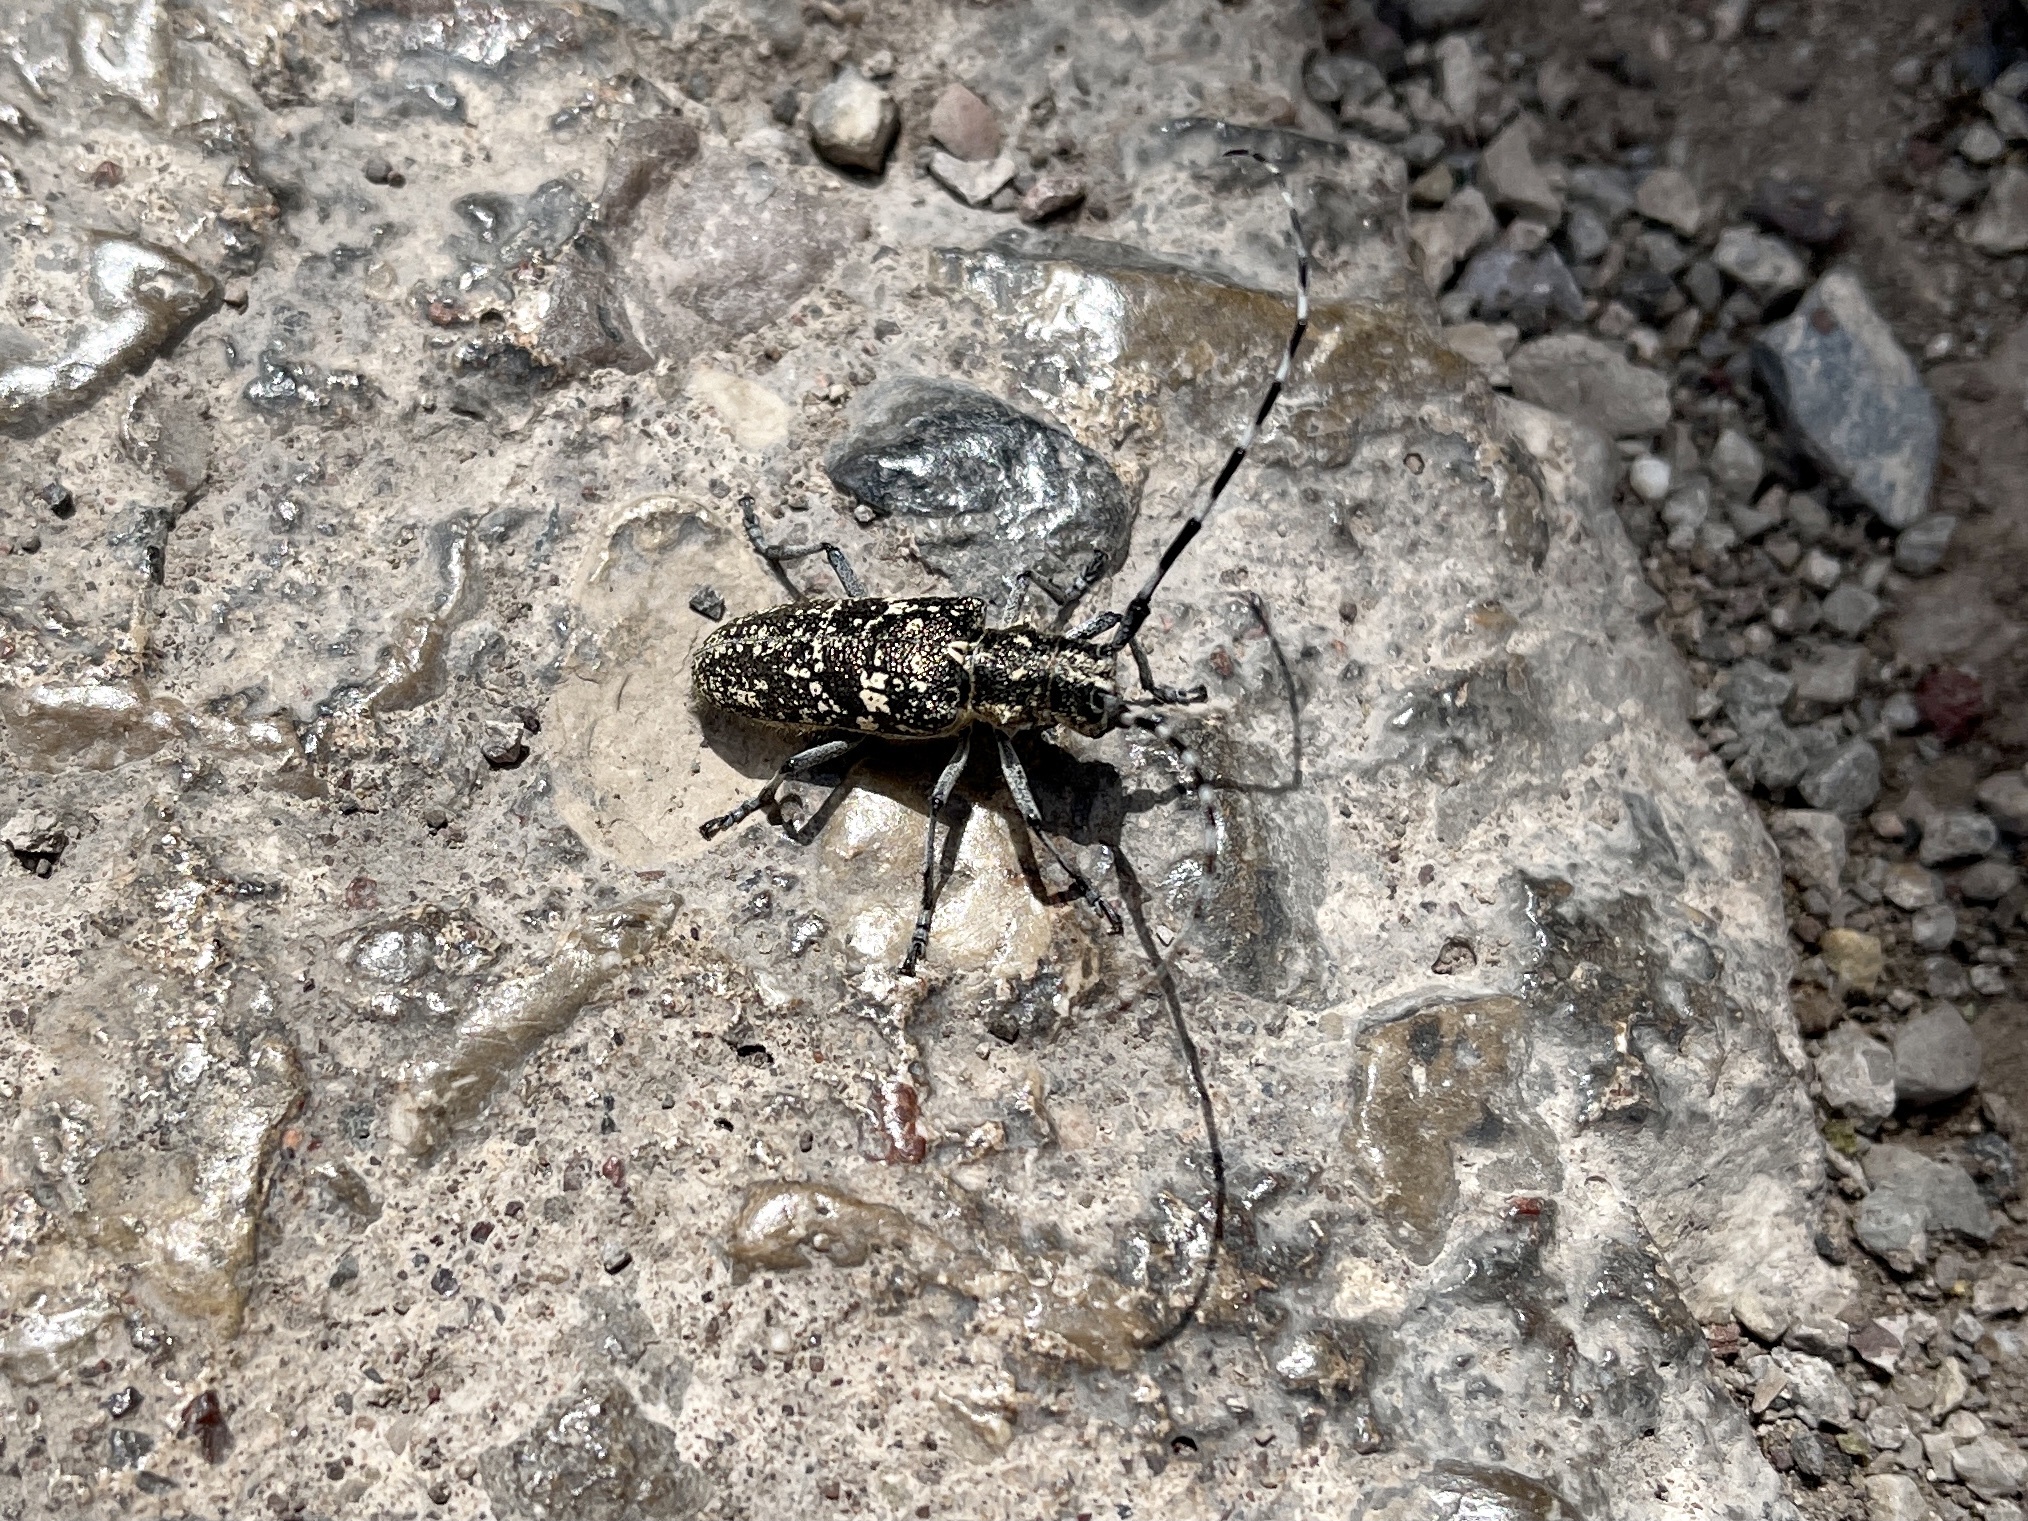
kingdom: Animalia
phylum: Arthropoda
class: Insecta
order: Coleoptera
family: Cerambycidae
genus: Monochamus
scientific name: Monochamus clamator
